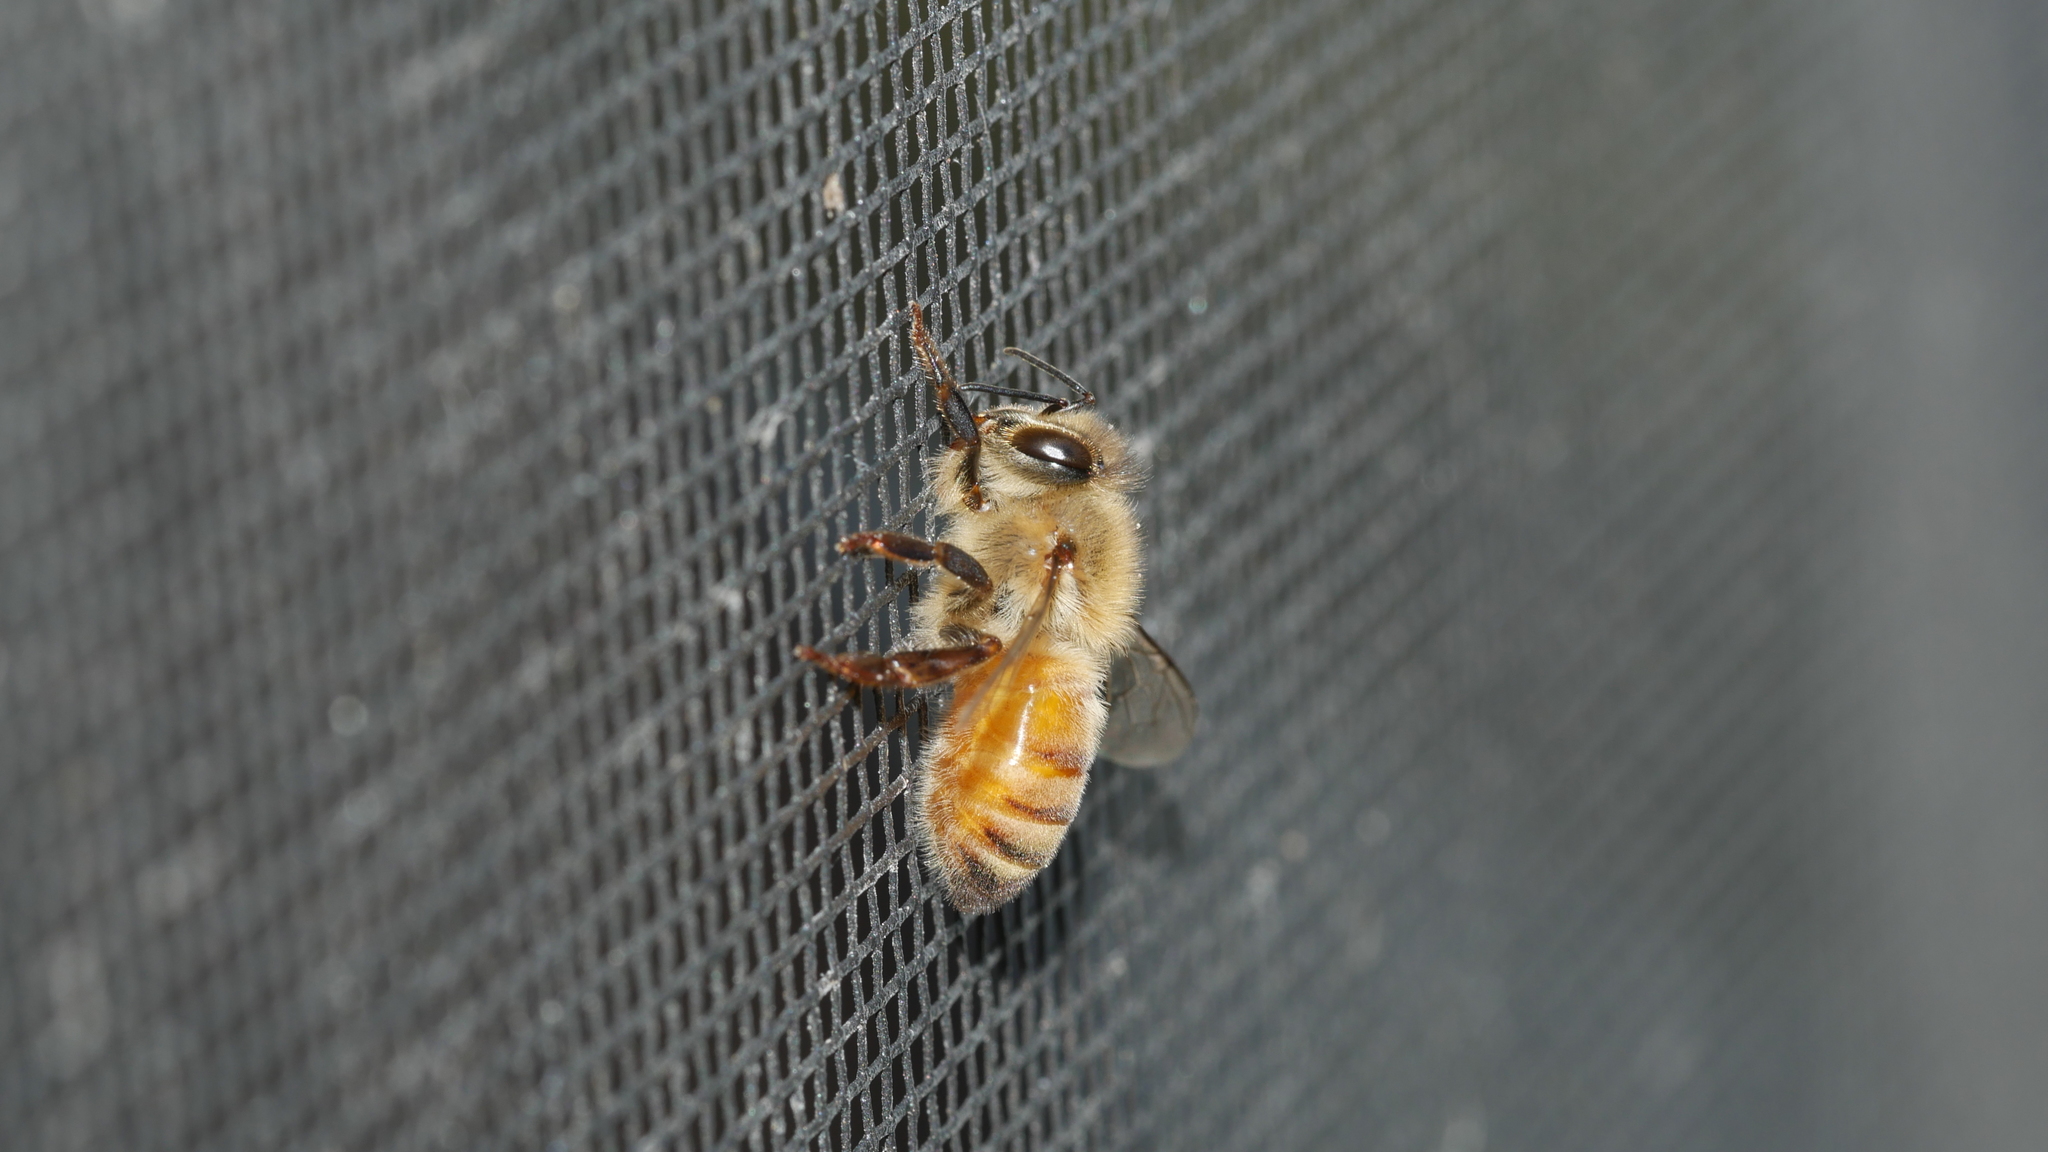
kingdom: Animalia
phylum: Arthropoda
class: Insecta
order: Hymenoptera
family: Apidae
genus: Apis
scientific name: Apis mellifera
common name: Honey bee
